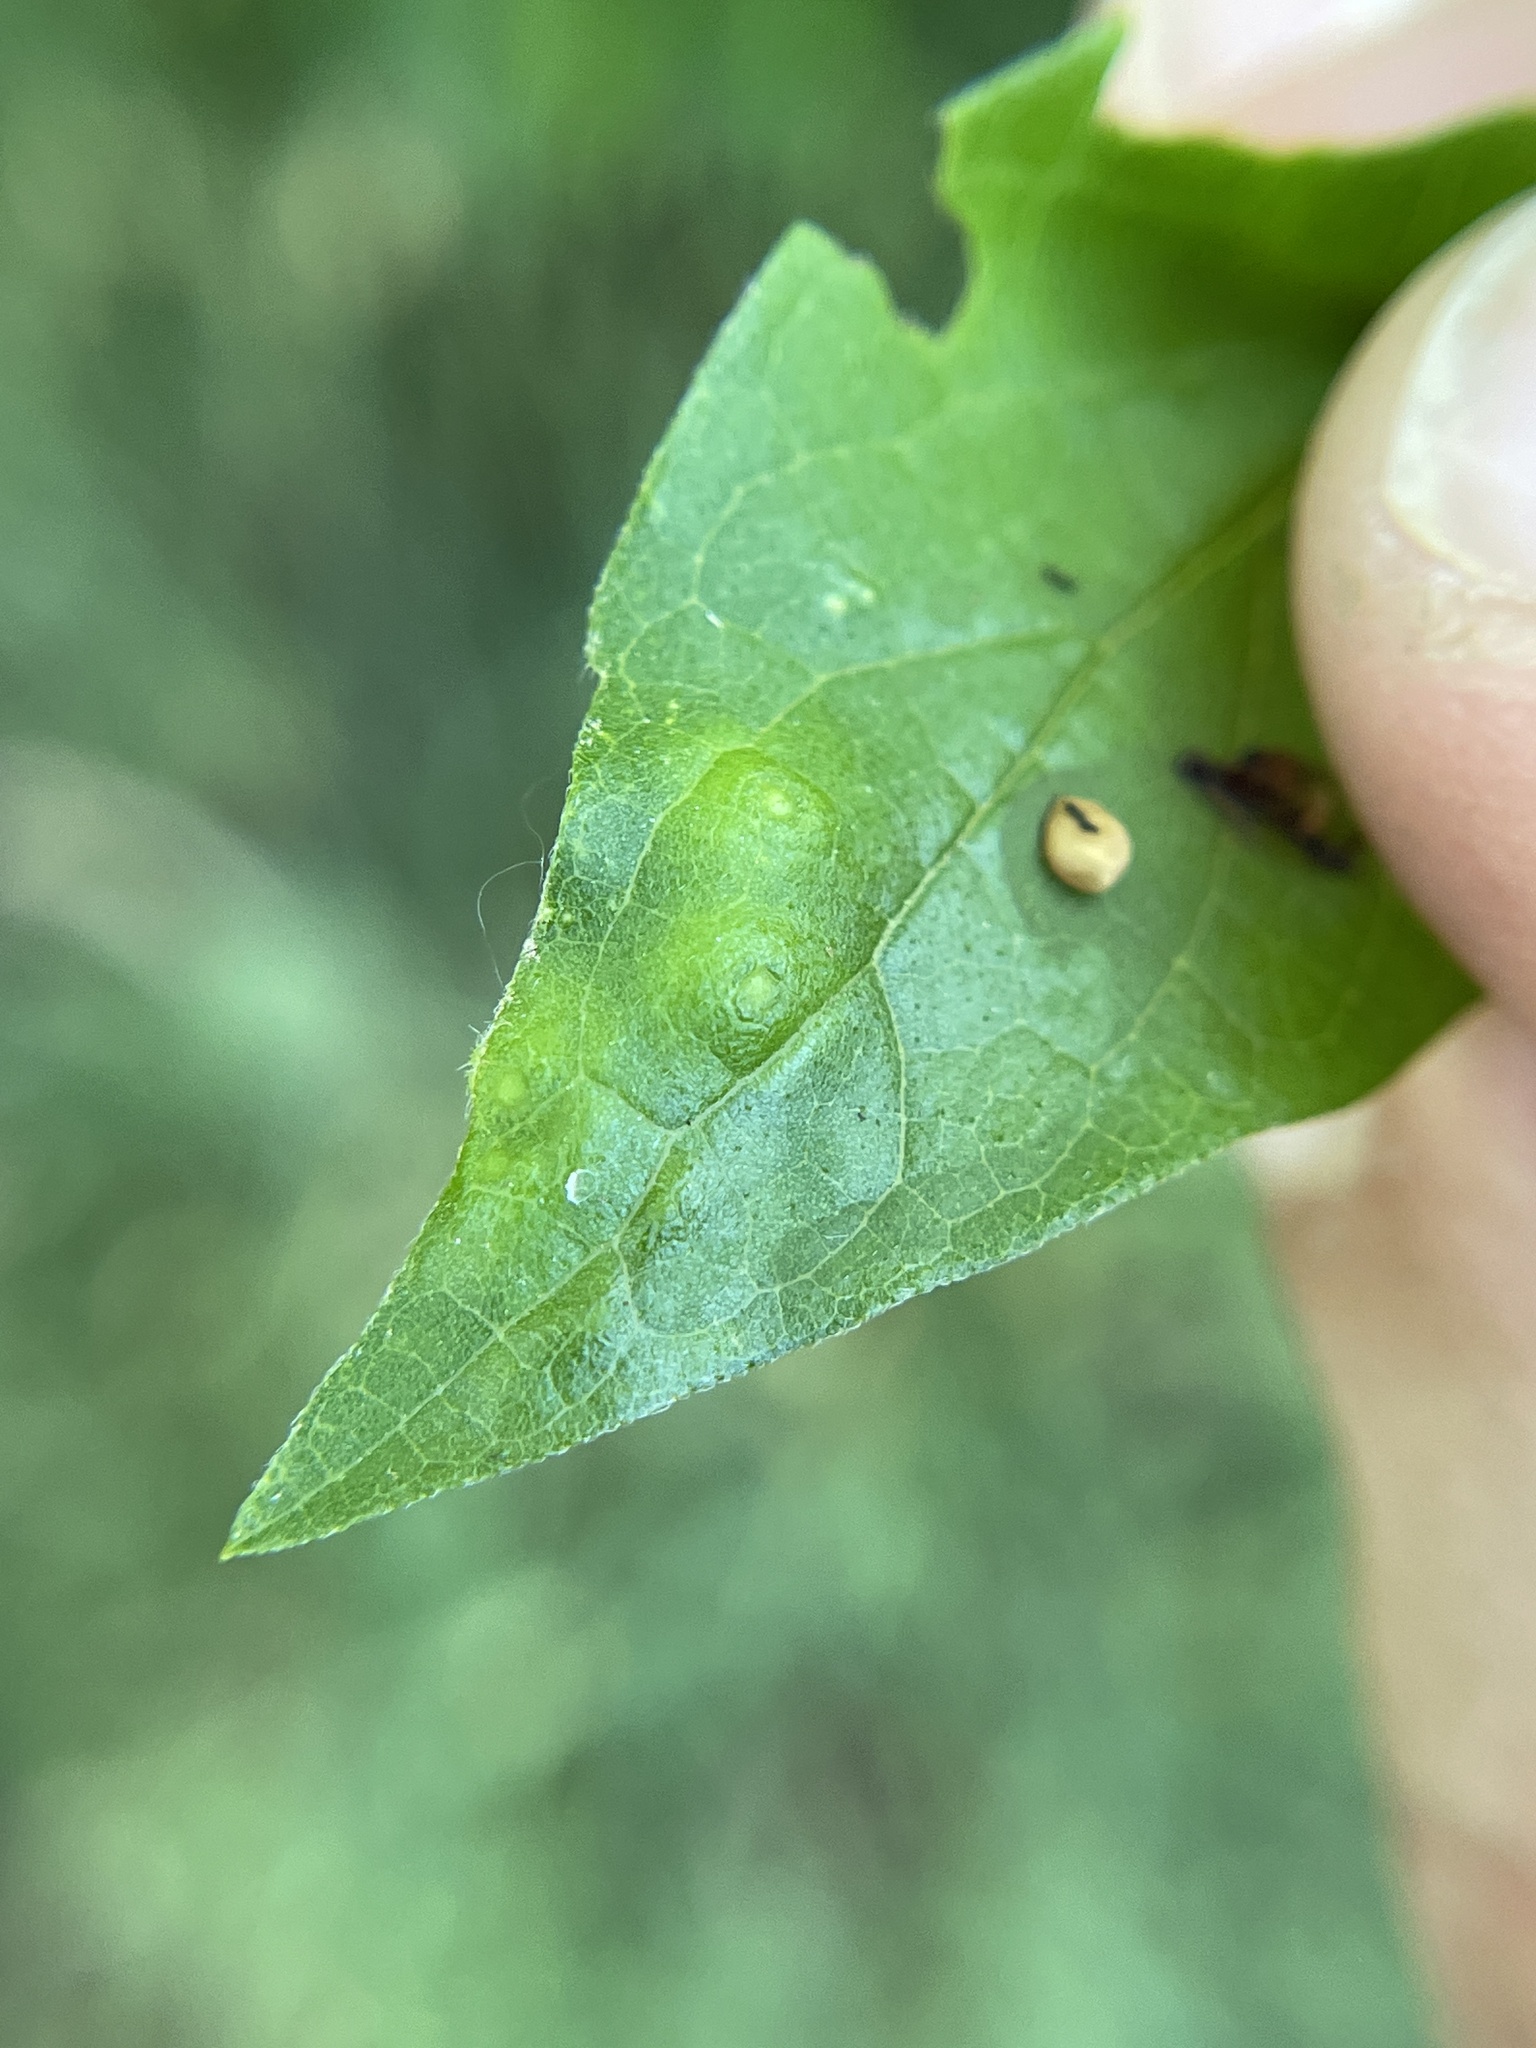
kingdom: Animalia
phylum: Arthropoda
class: Insecta
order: Diptera
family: Cecidomyiidae
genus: Celticecis
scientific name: Celticecis capsularis
